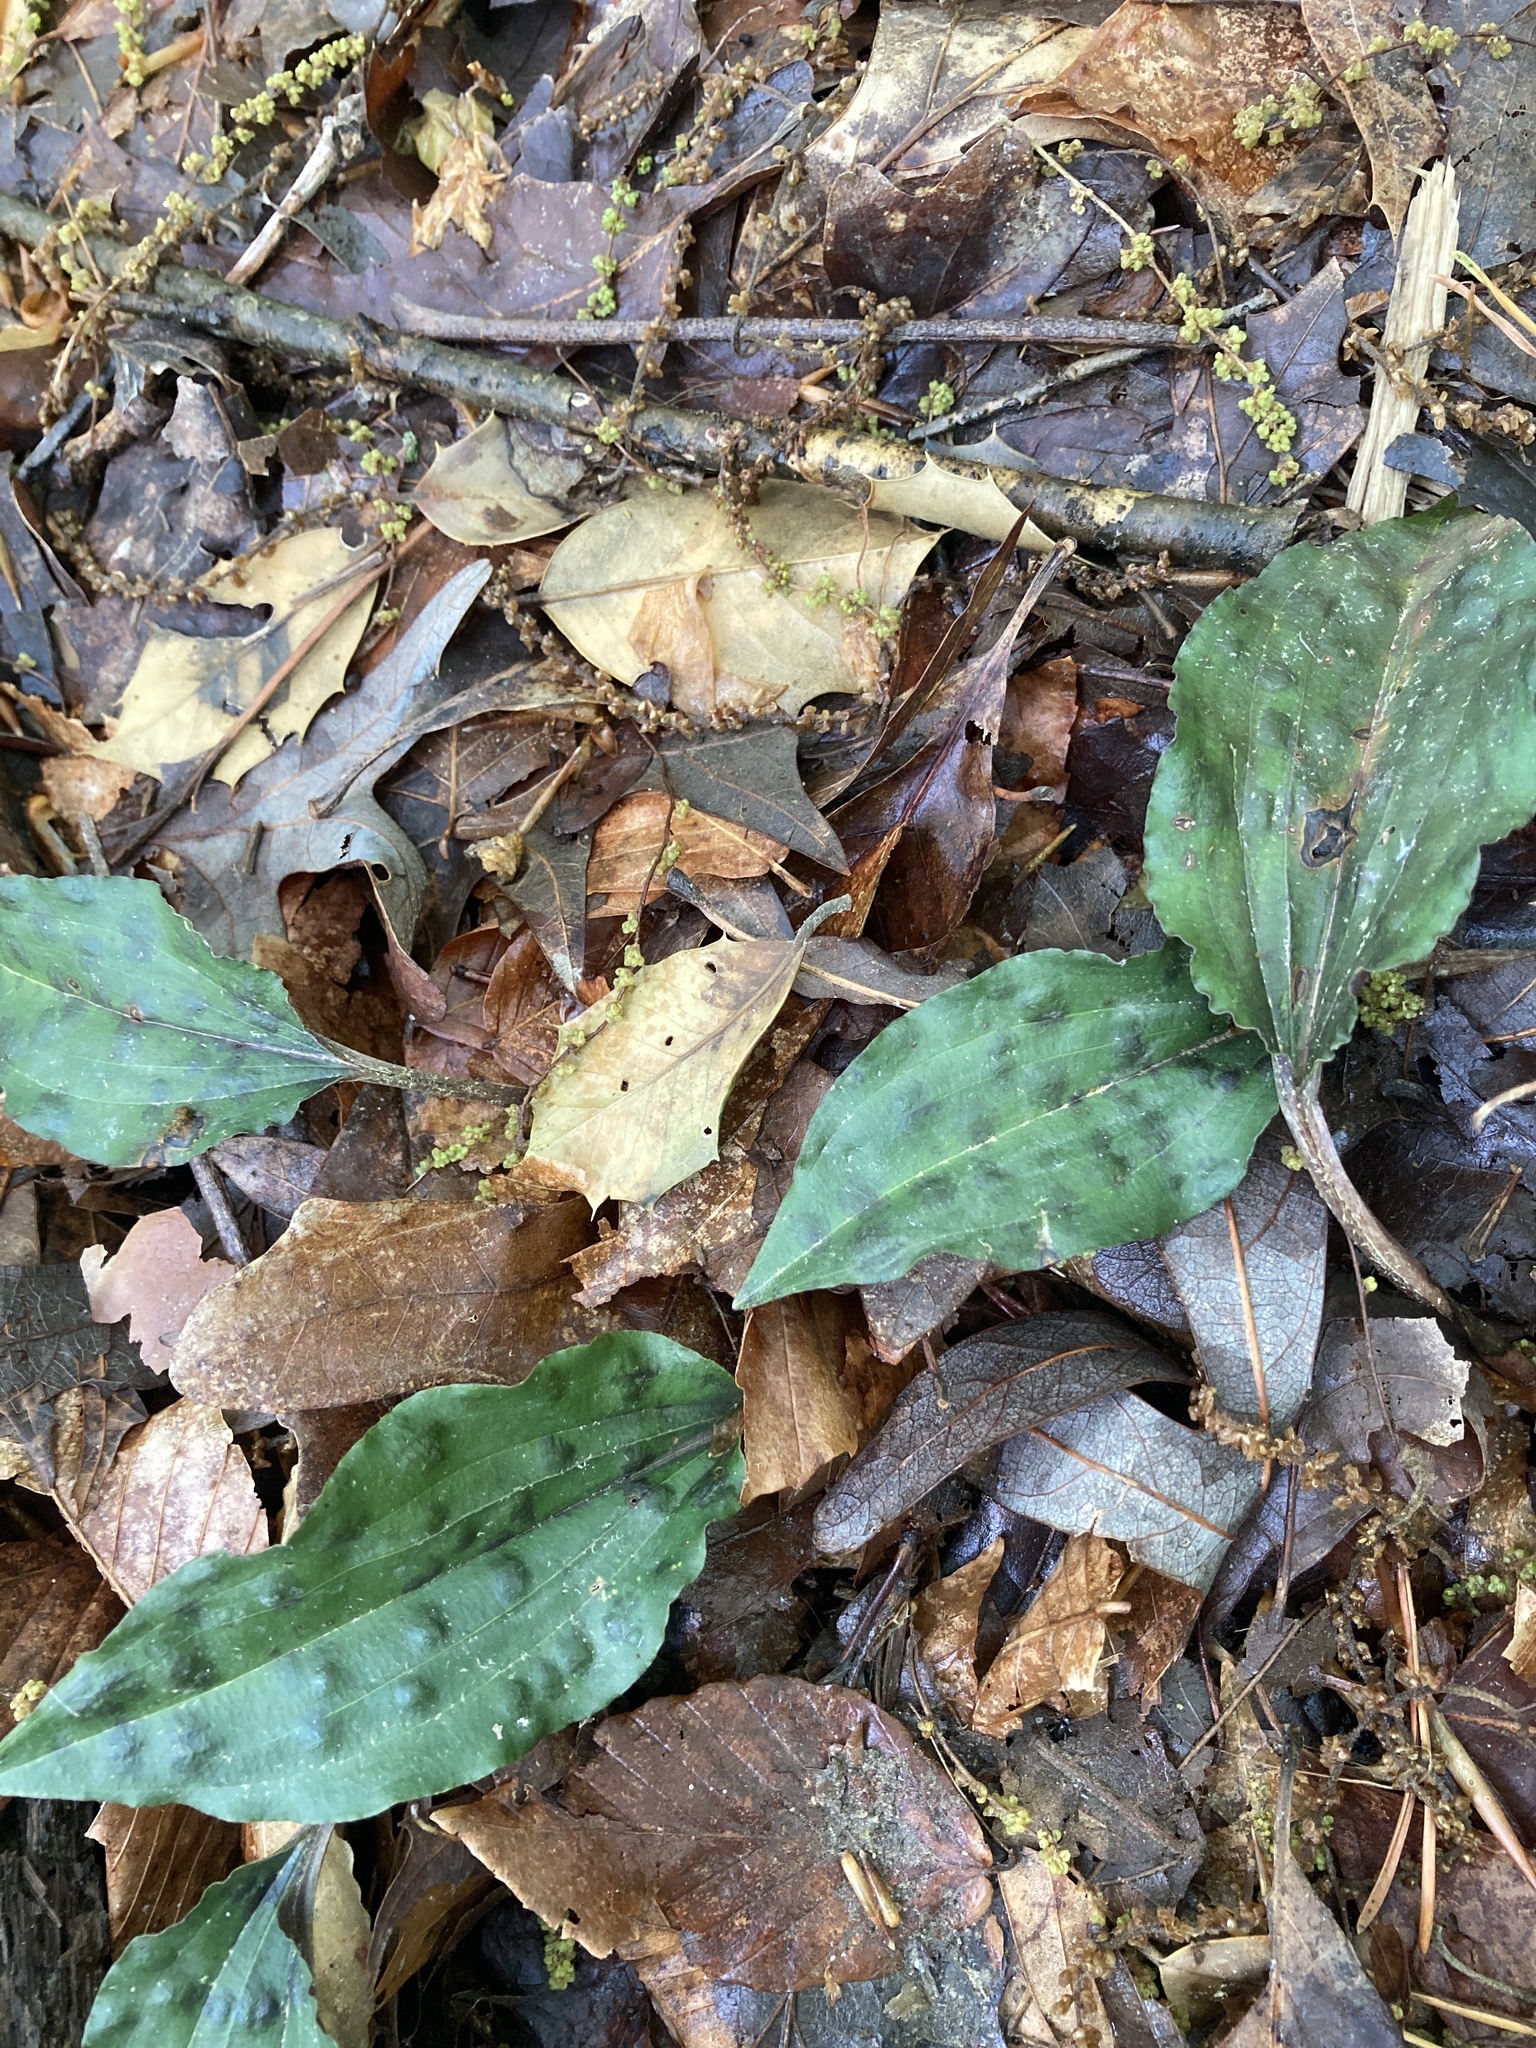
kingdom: Plantae
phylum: Tracheophyta
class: Liliopsida
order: Asparagales
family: Orchidaceae
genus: Tipularia
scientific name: Tipularia discolor
